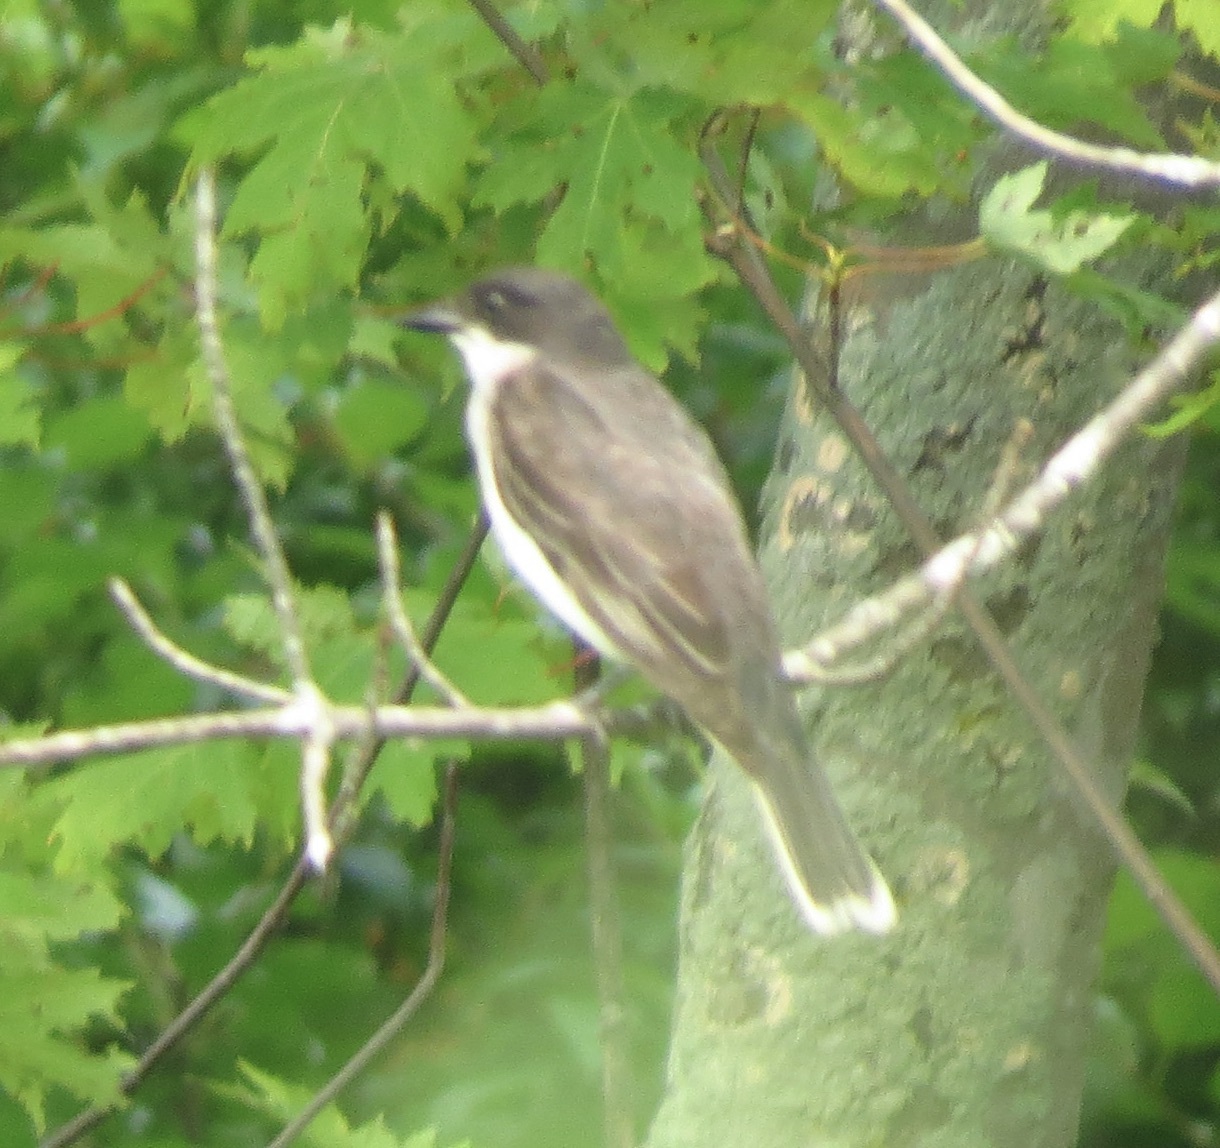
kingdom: Animalia
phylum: Chordata
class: Aves
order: Passeriformes
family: Tyrannidae
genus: Tyrannus
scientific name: Tyrannus tyrannus
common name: Eastern kingbird
